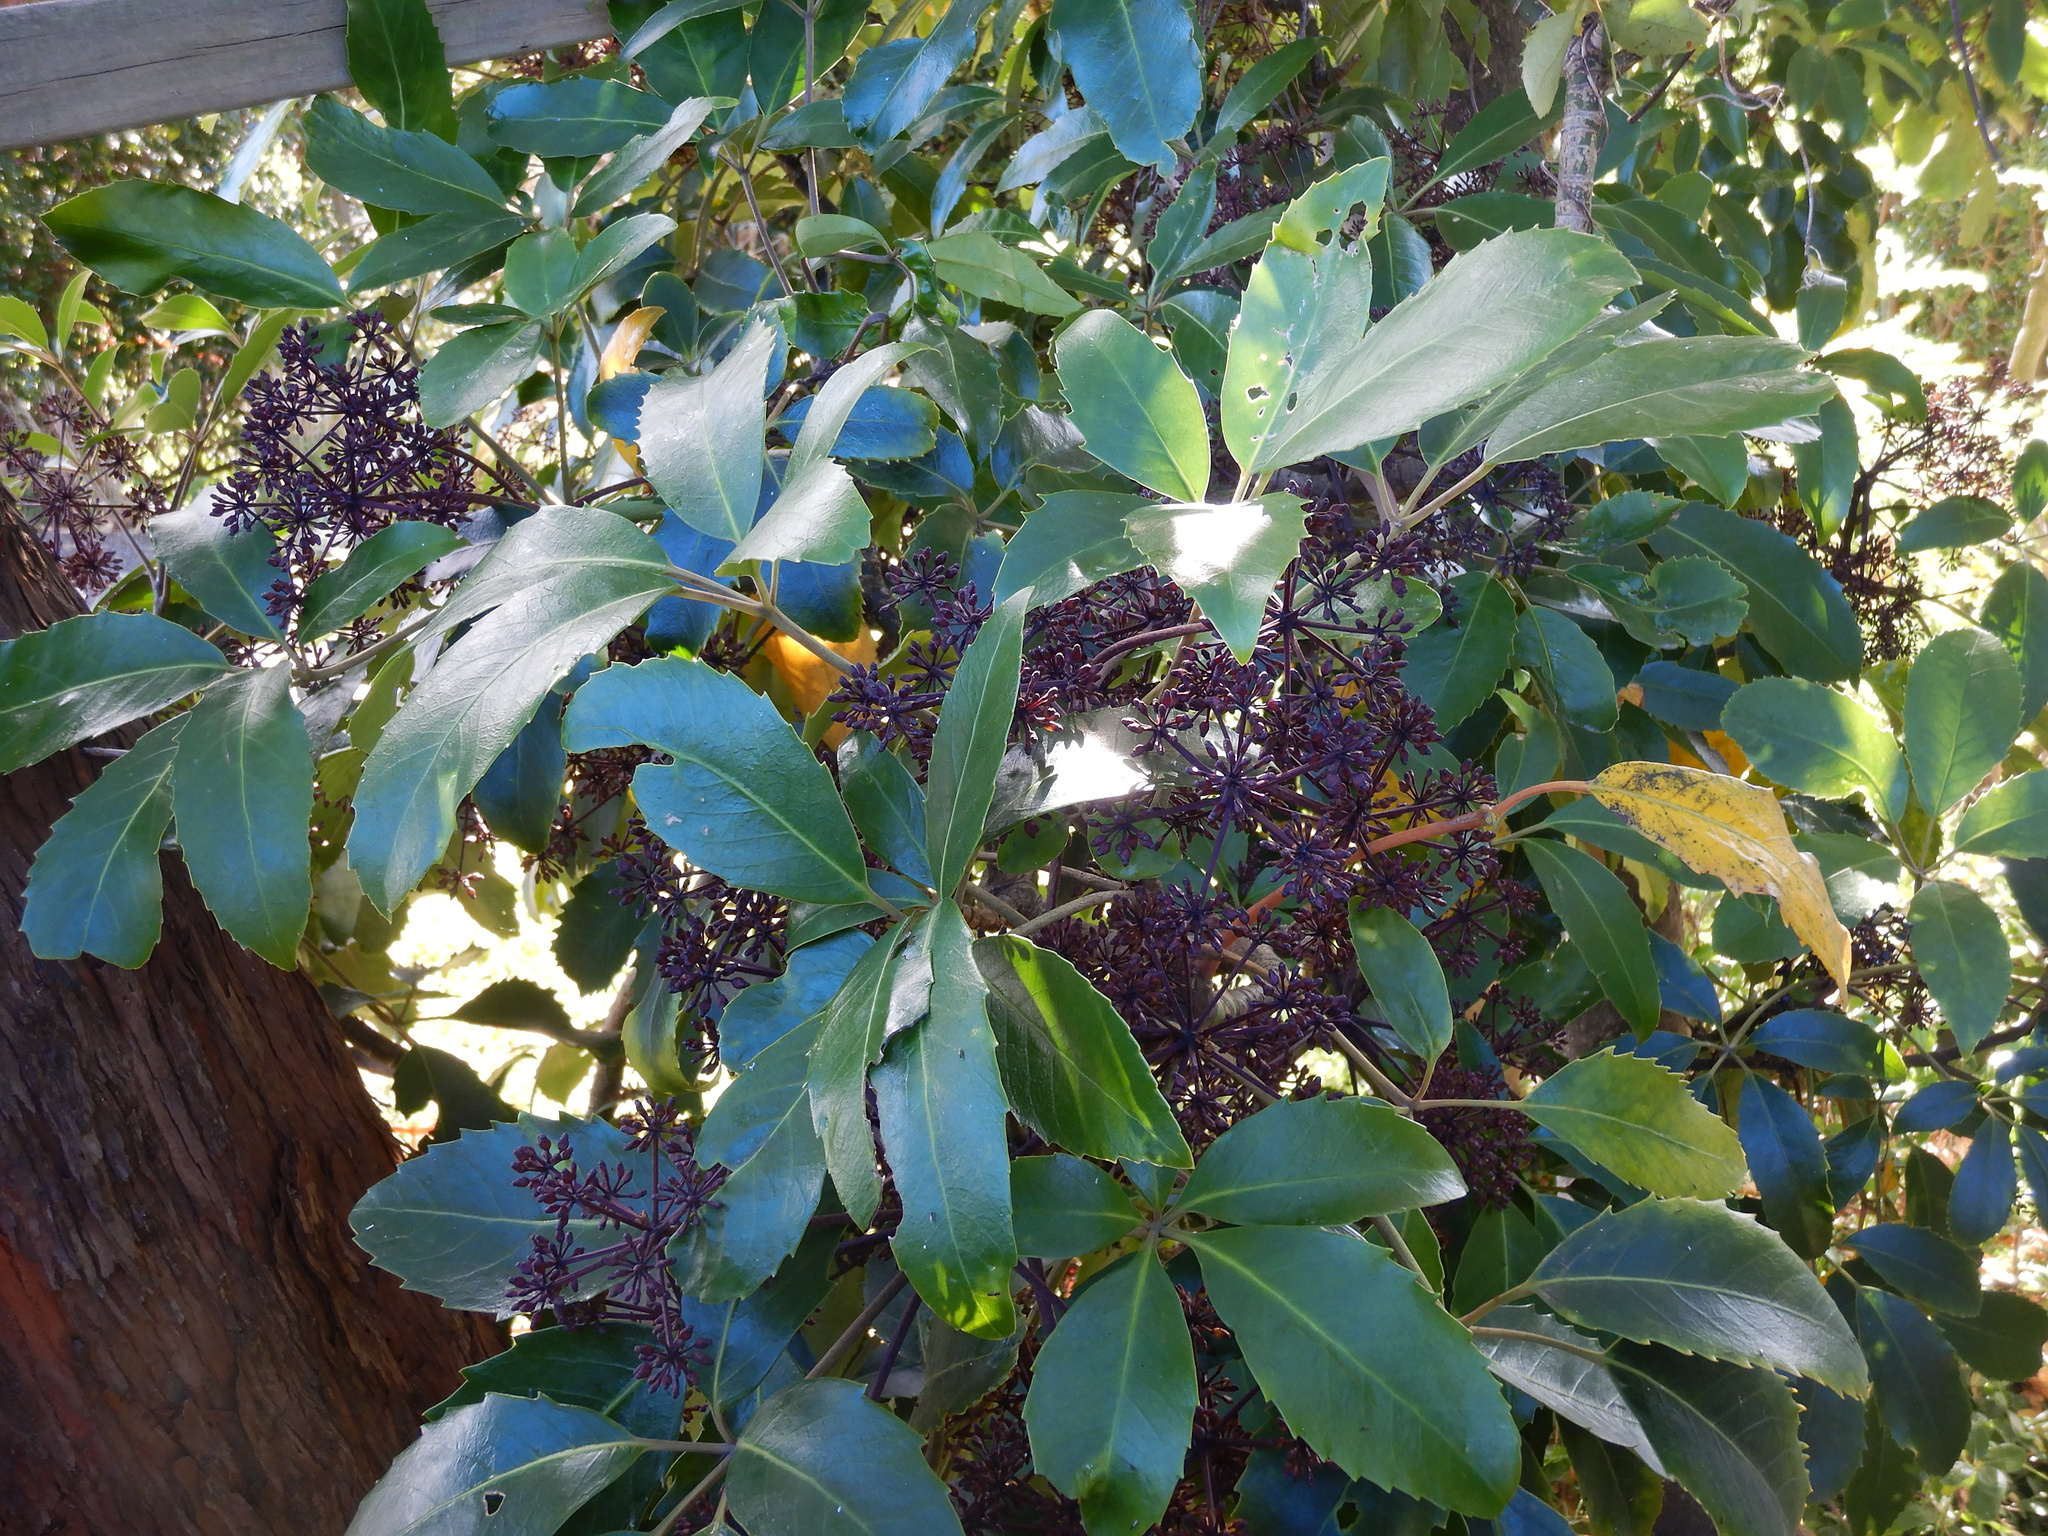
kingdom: Plantae
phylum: Tracheophyta
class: Magnoliopsida
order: Apiales
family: Araliaceae
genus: Neopanax
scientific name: Neopanax arboreus
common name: Five-fingers
